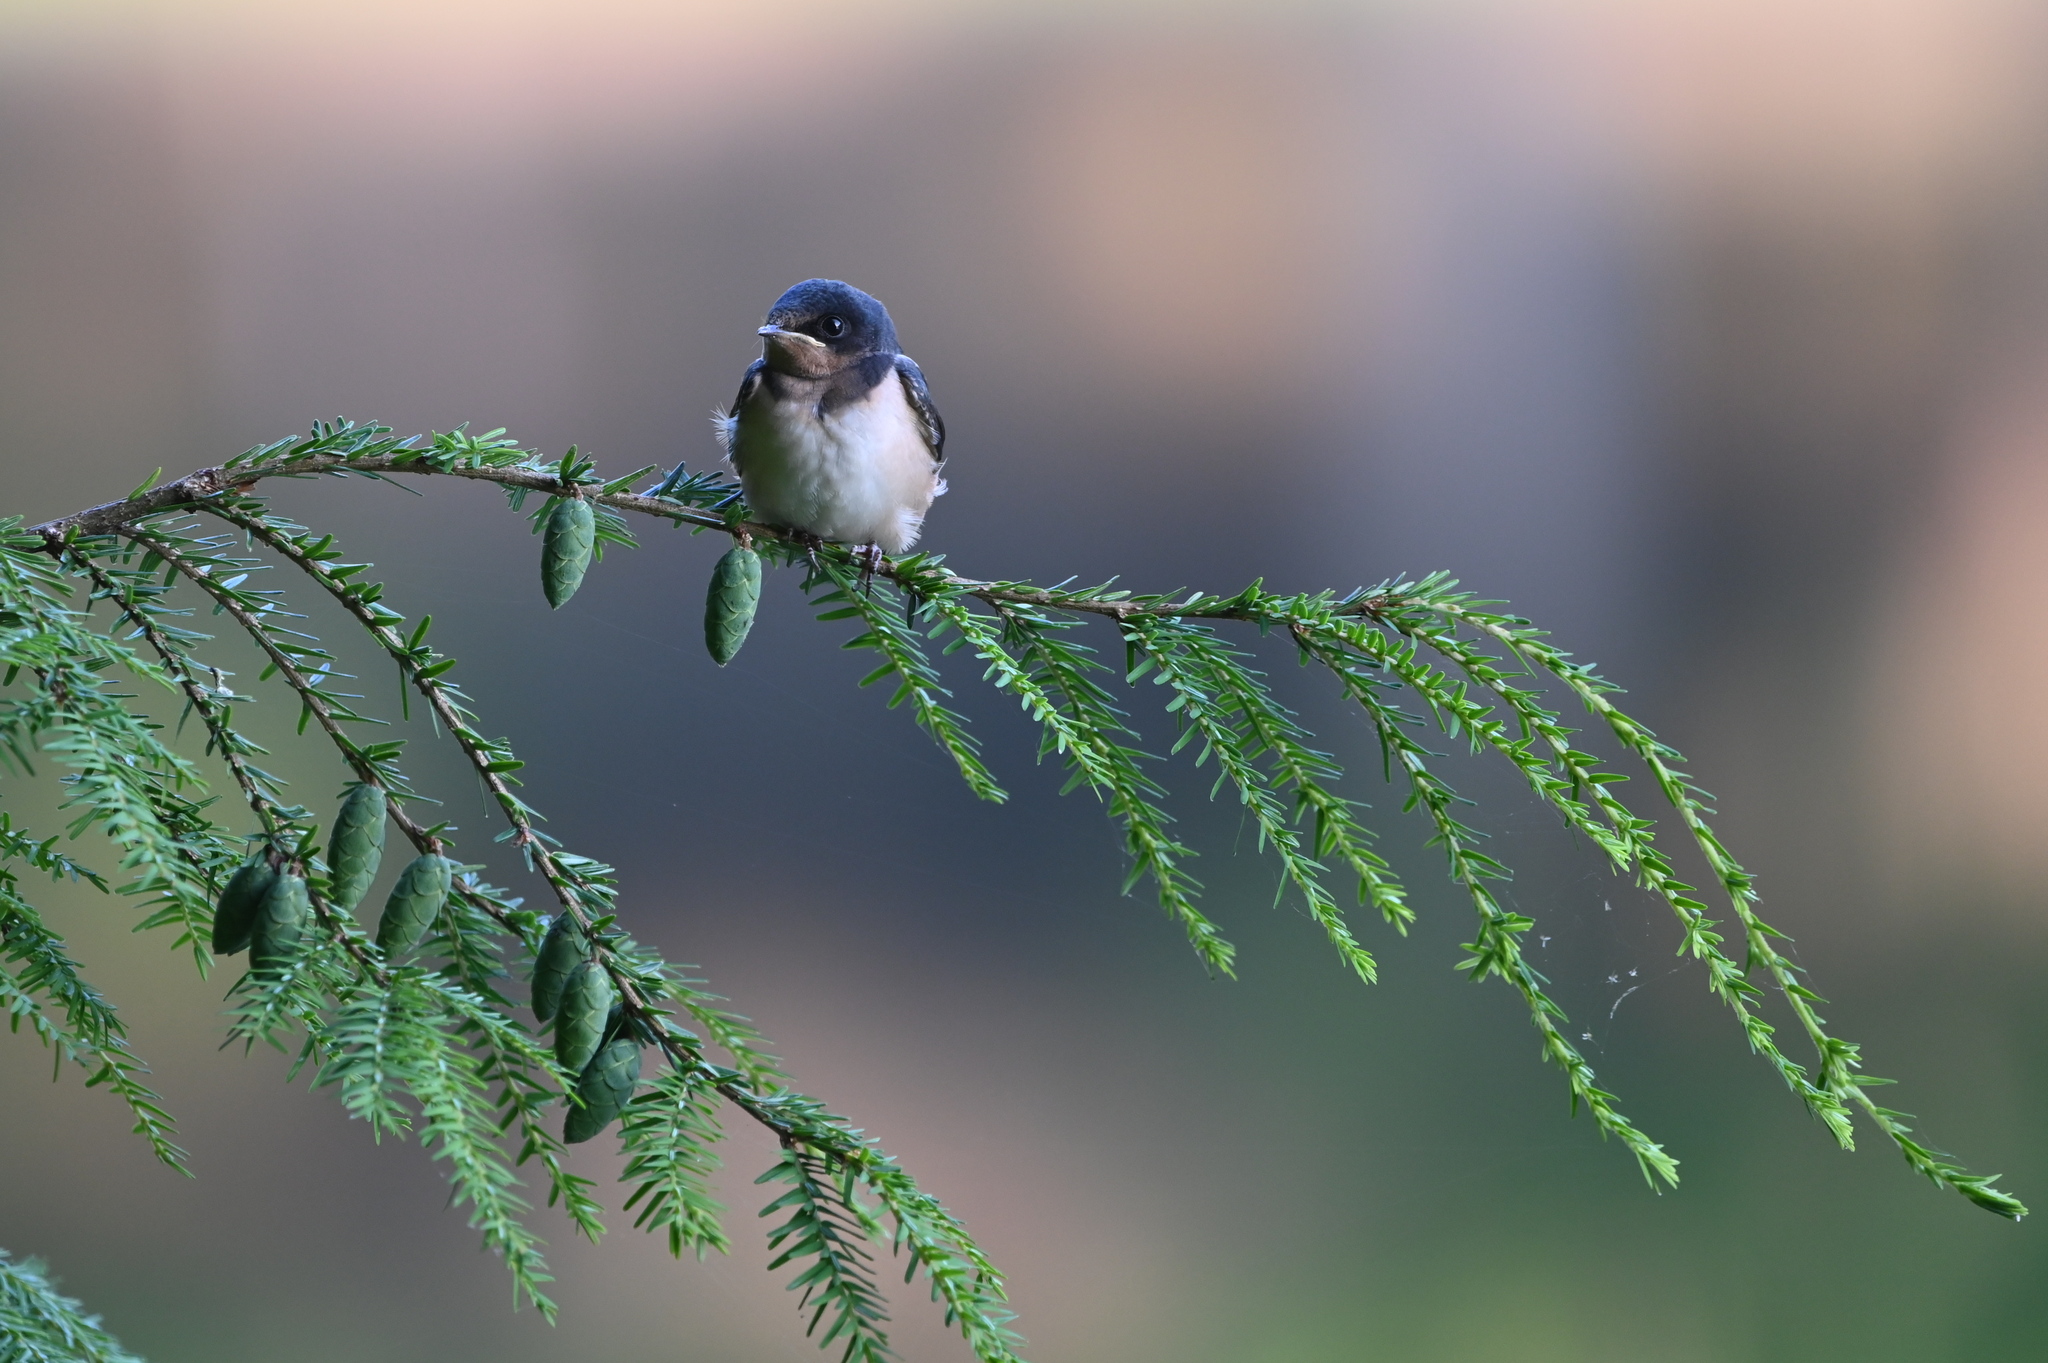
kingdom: Animalia
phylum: Chordata
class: Aves
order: Passeriformes
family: Hirundinidae
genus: Hirundo
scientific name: Hirundo rustica
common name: Barn swallow
